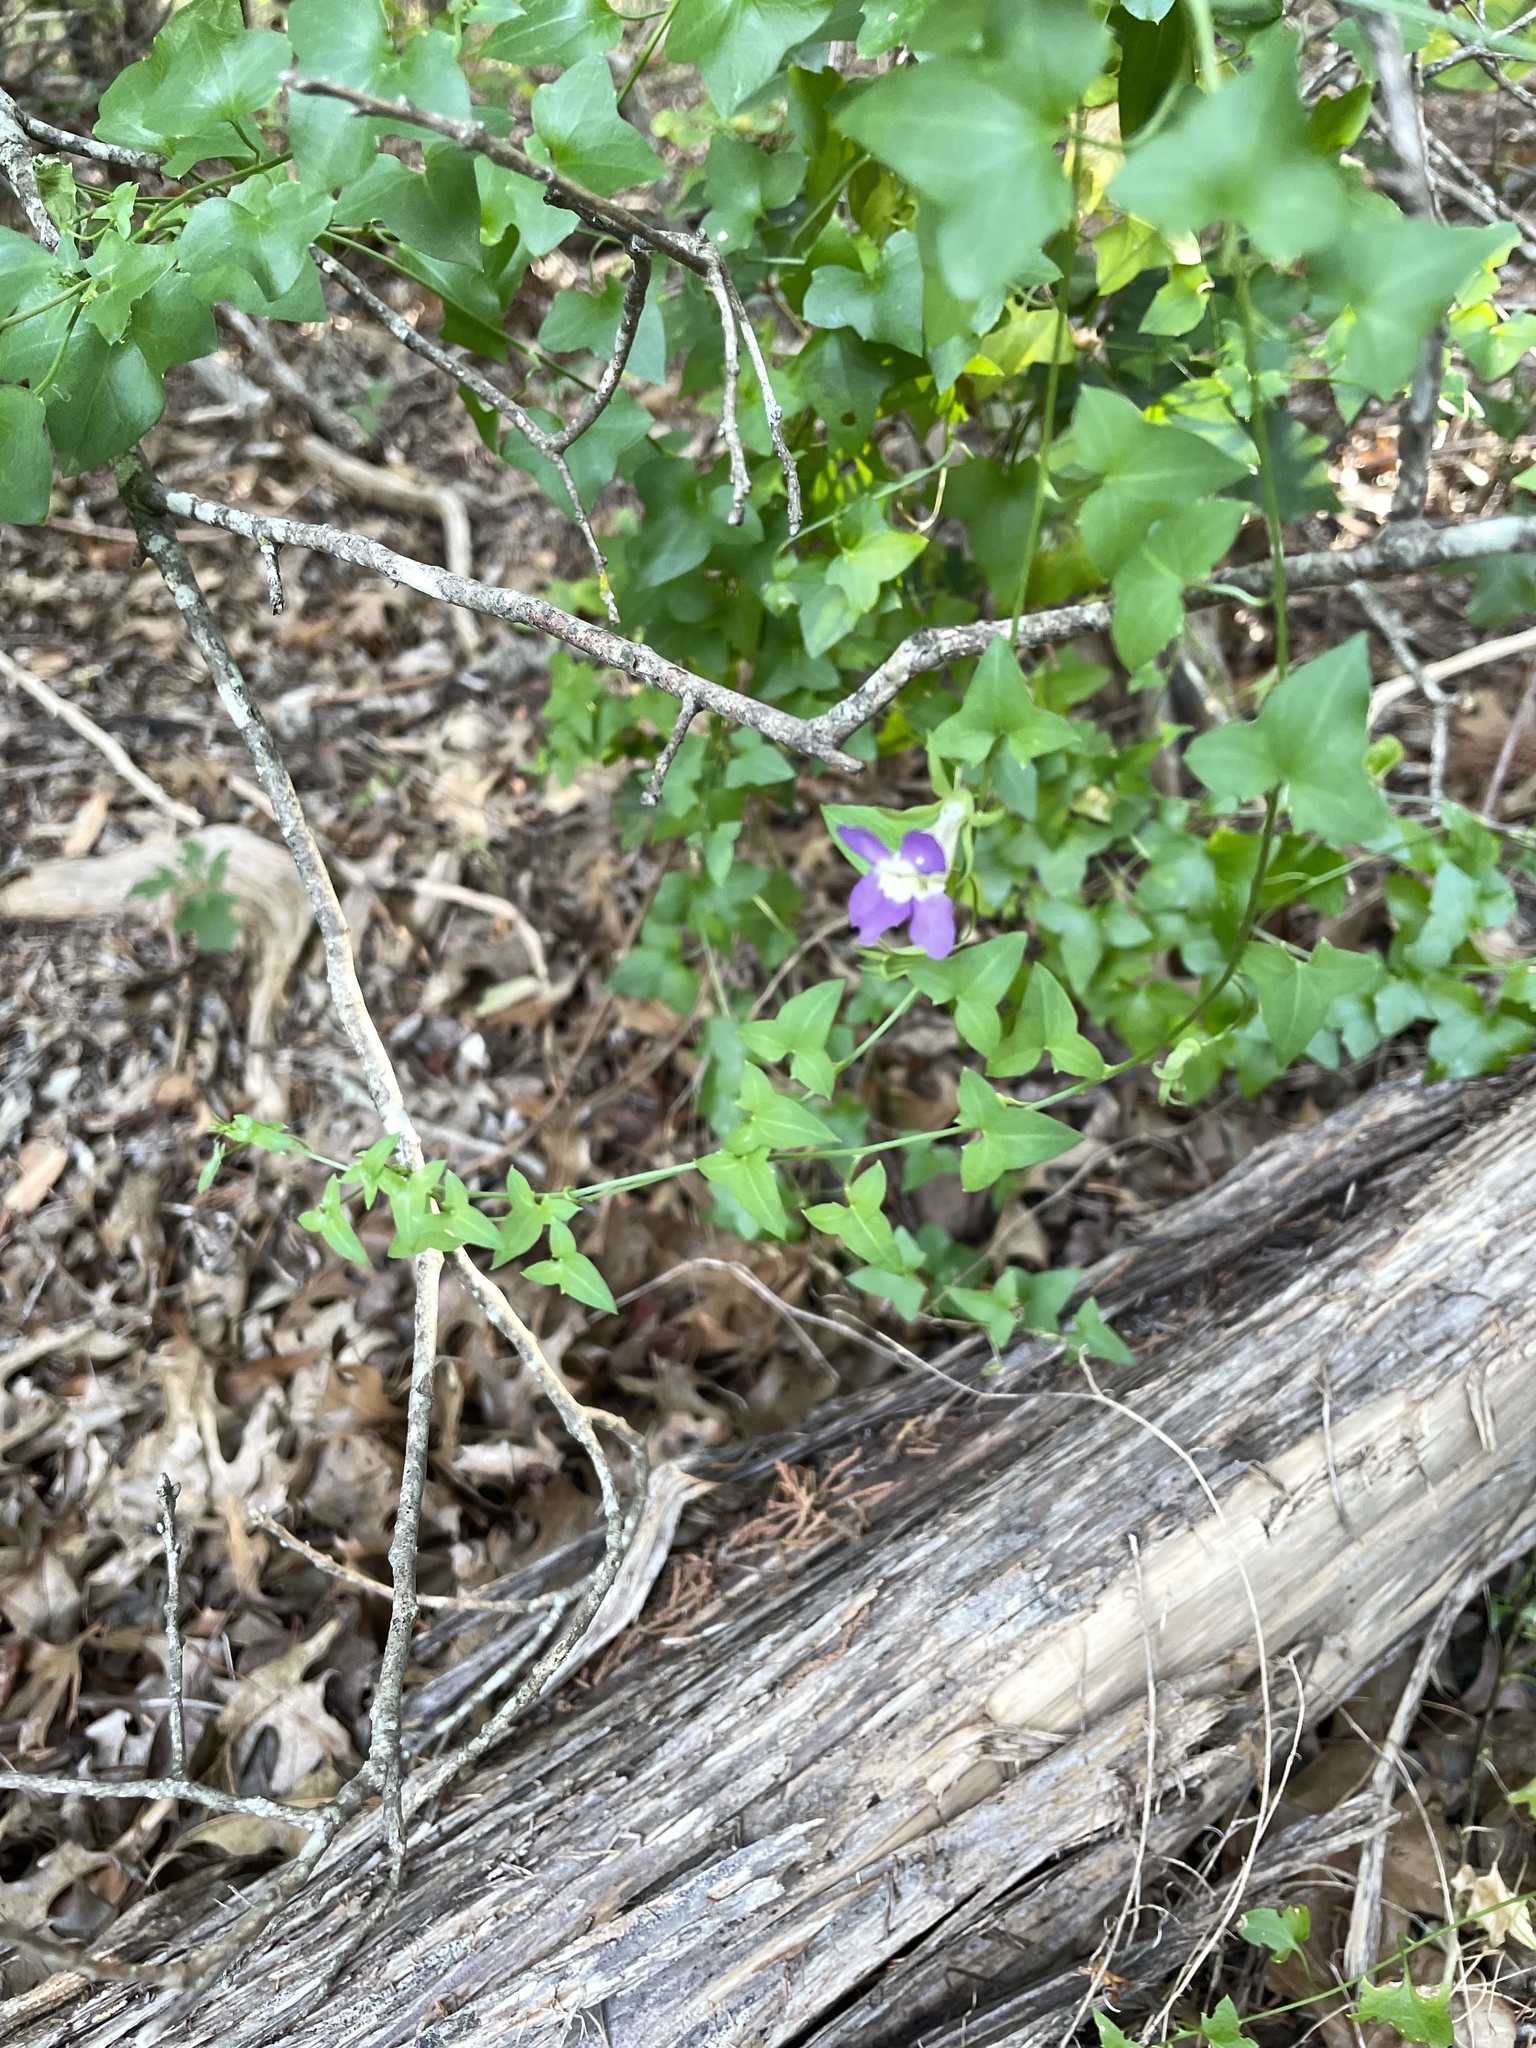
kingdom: Plantae
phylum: Tracheophyta
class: Magnoliopsida
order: Lamiales
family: Plantaginaceae
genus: Maurandella
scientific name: Maurandella antirrhiniflora
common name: Violet twining-snapdragon
